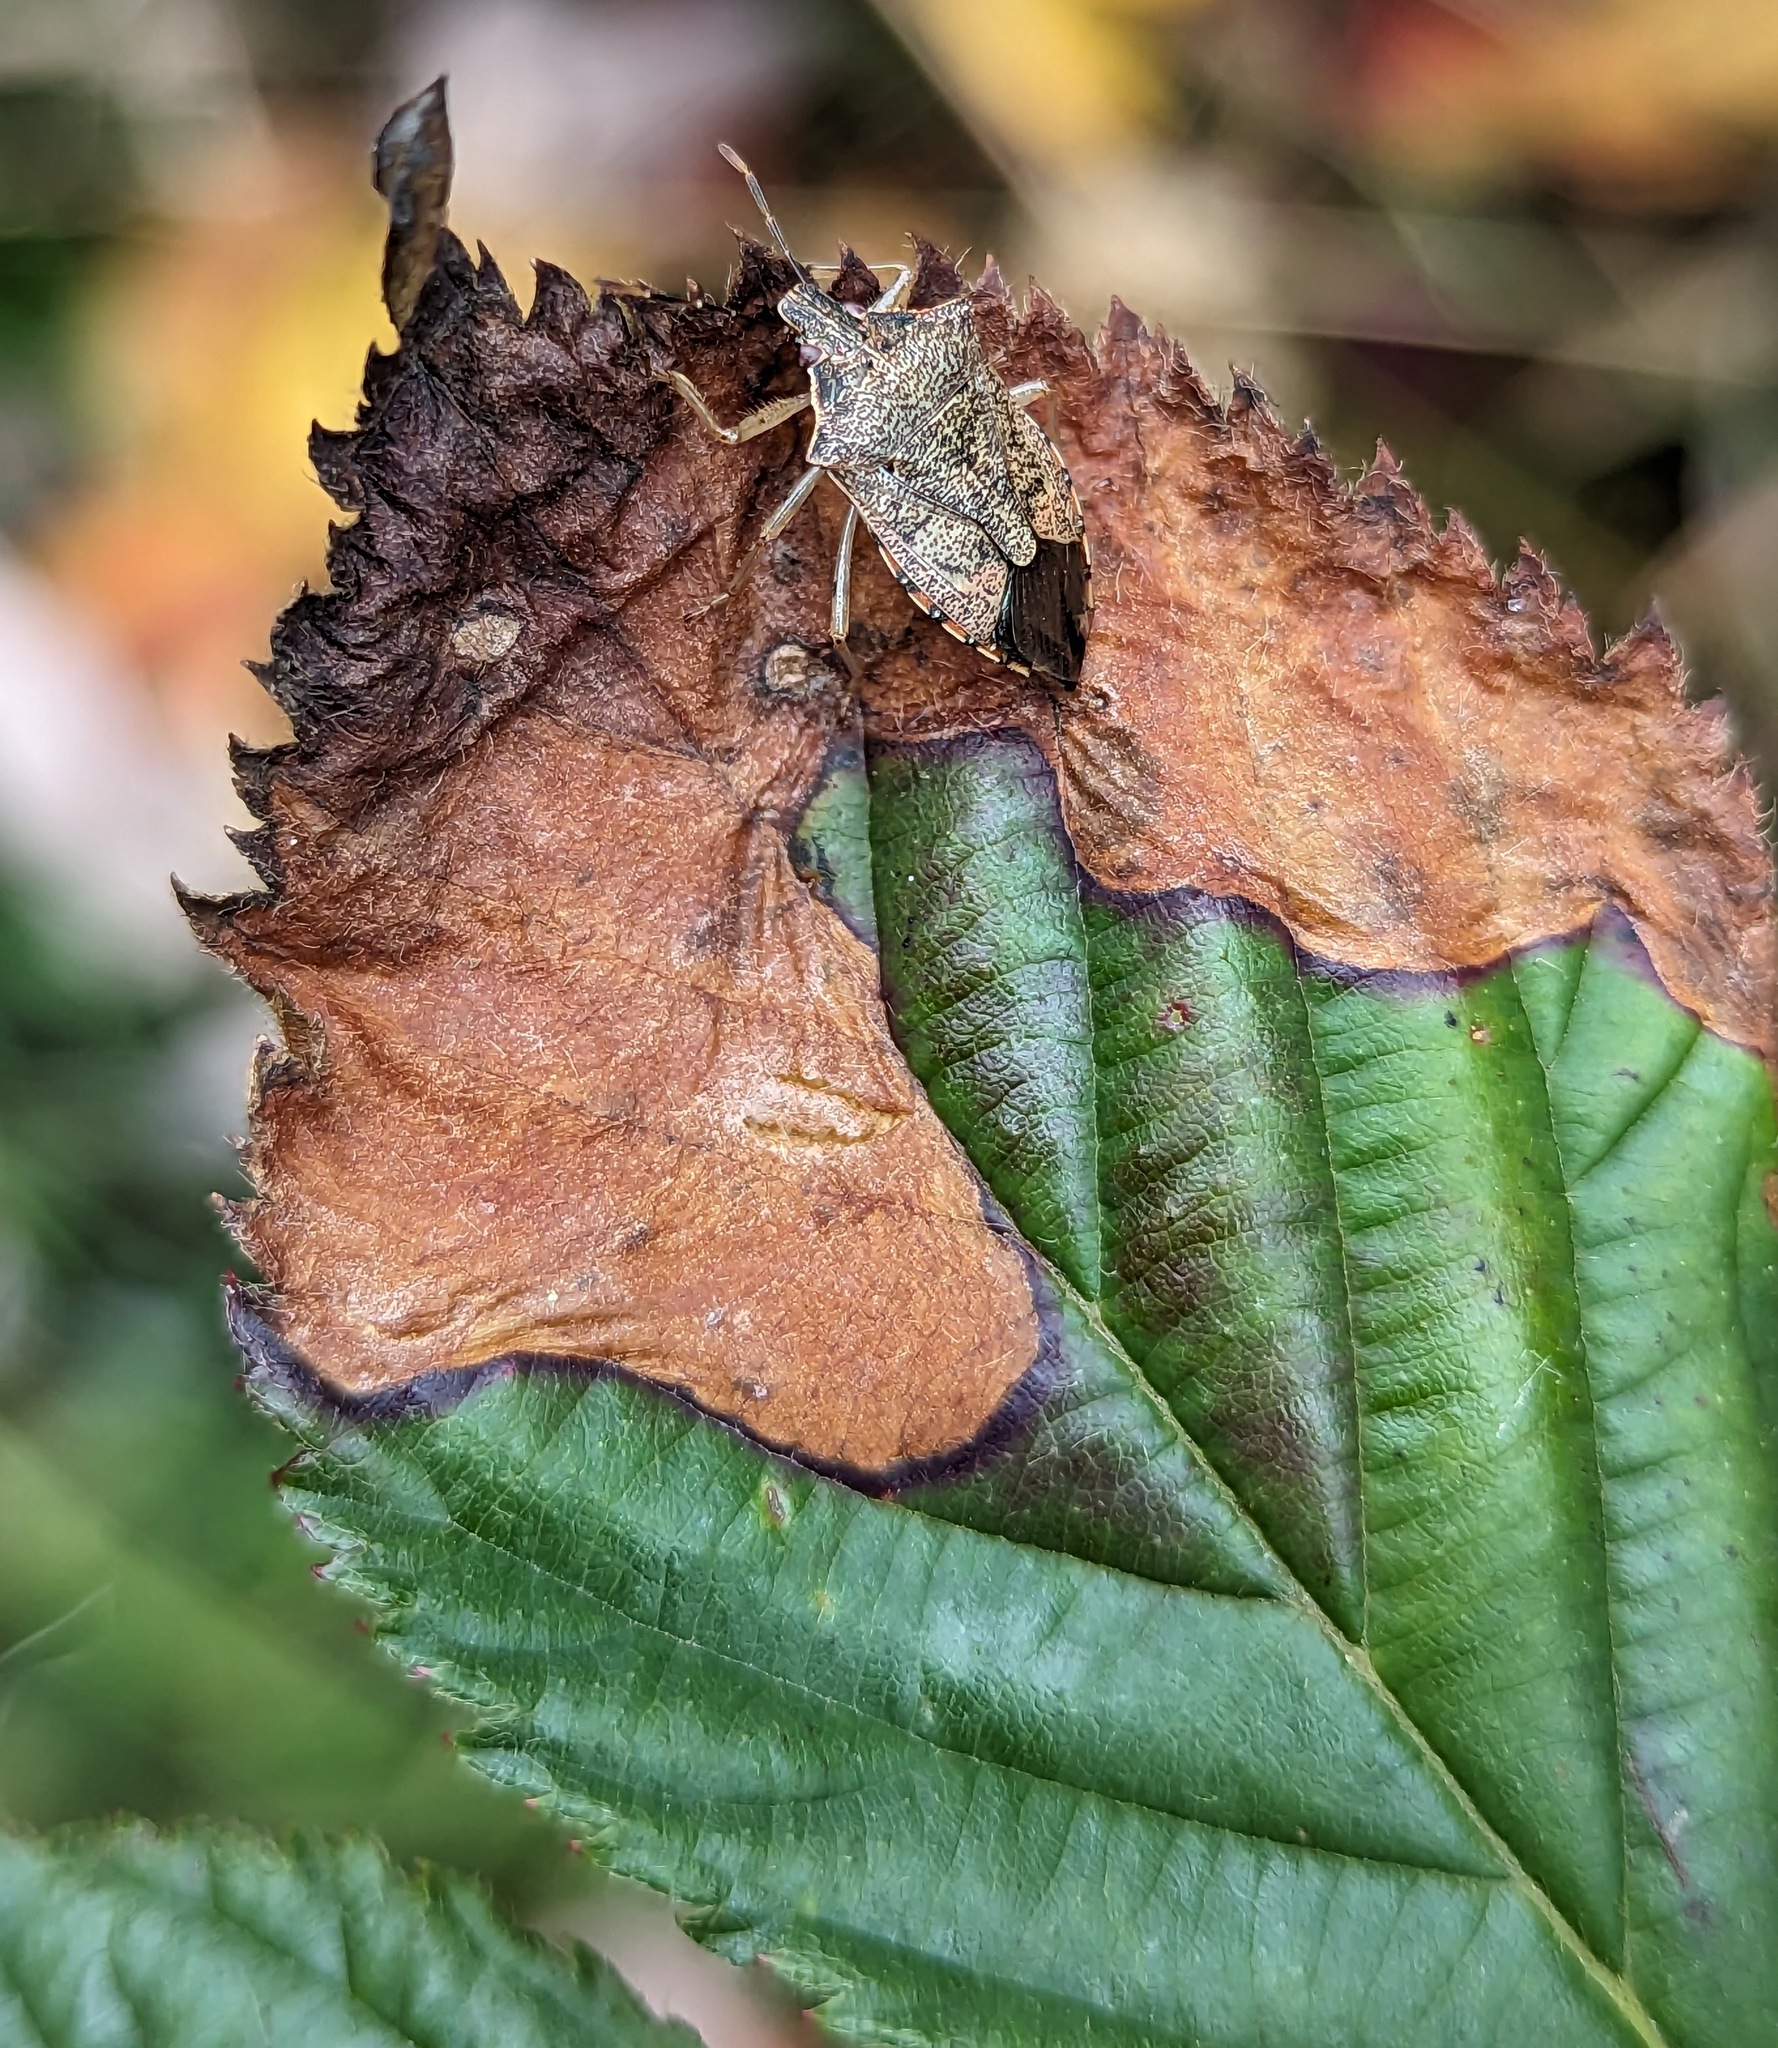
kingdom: Animalia
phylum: Arthropoda
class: Insecta
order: Hymenoptera
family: Tenthredinidae
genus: Metallus
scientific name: Metallus rohweri
